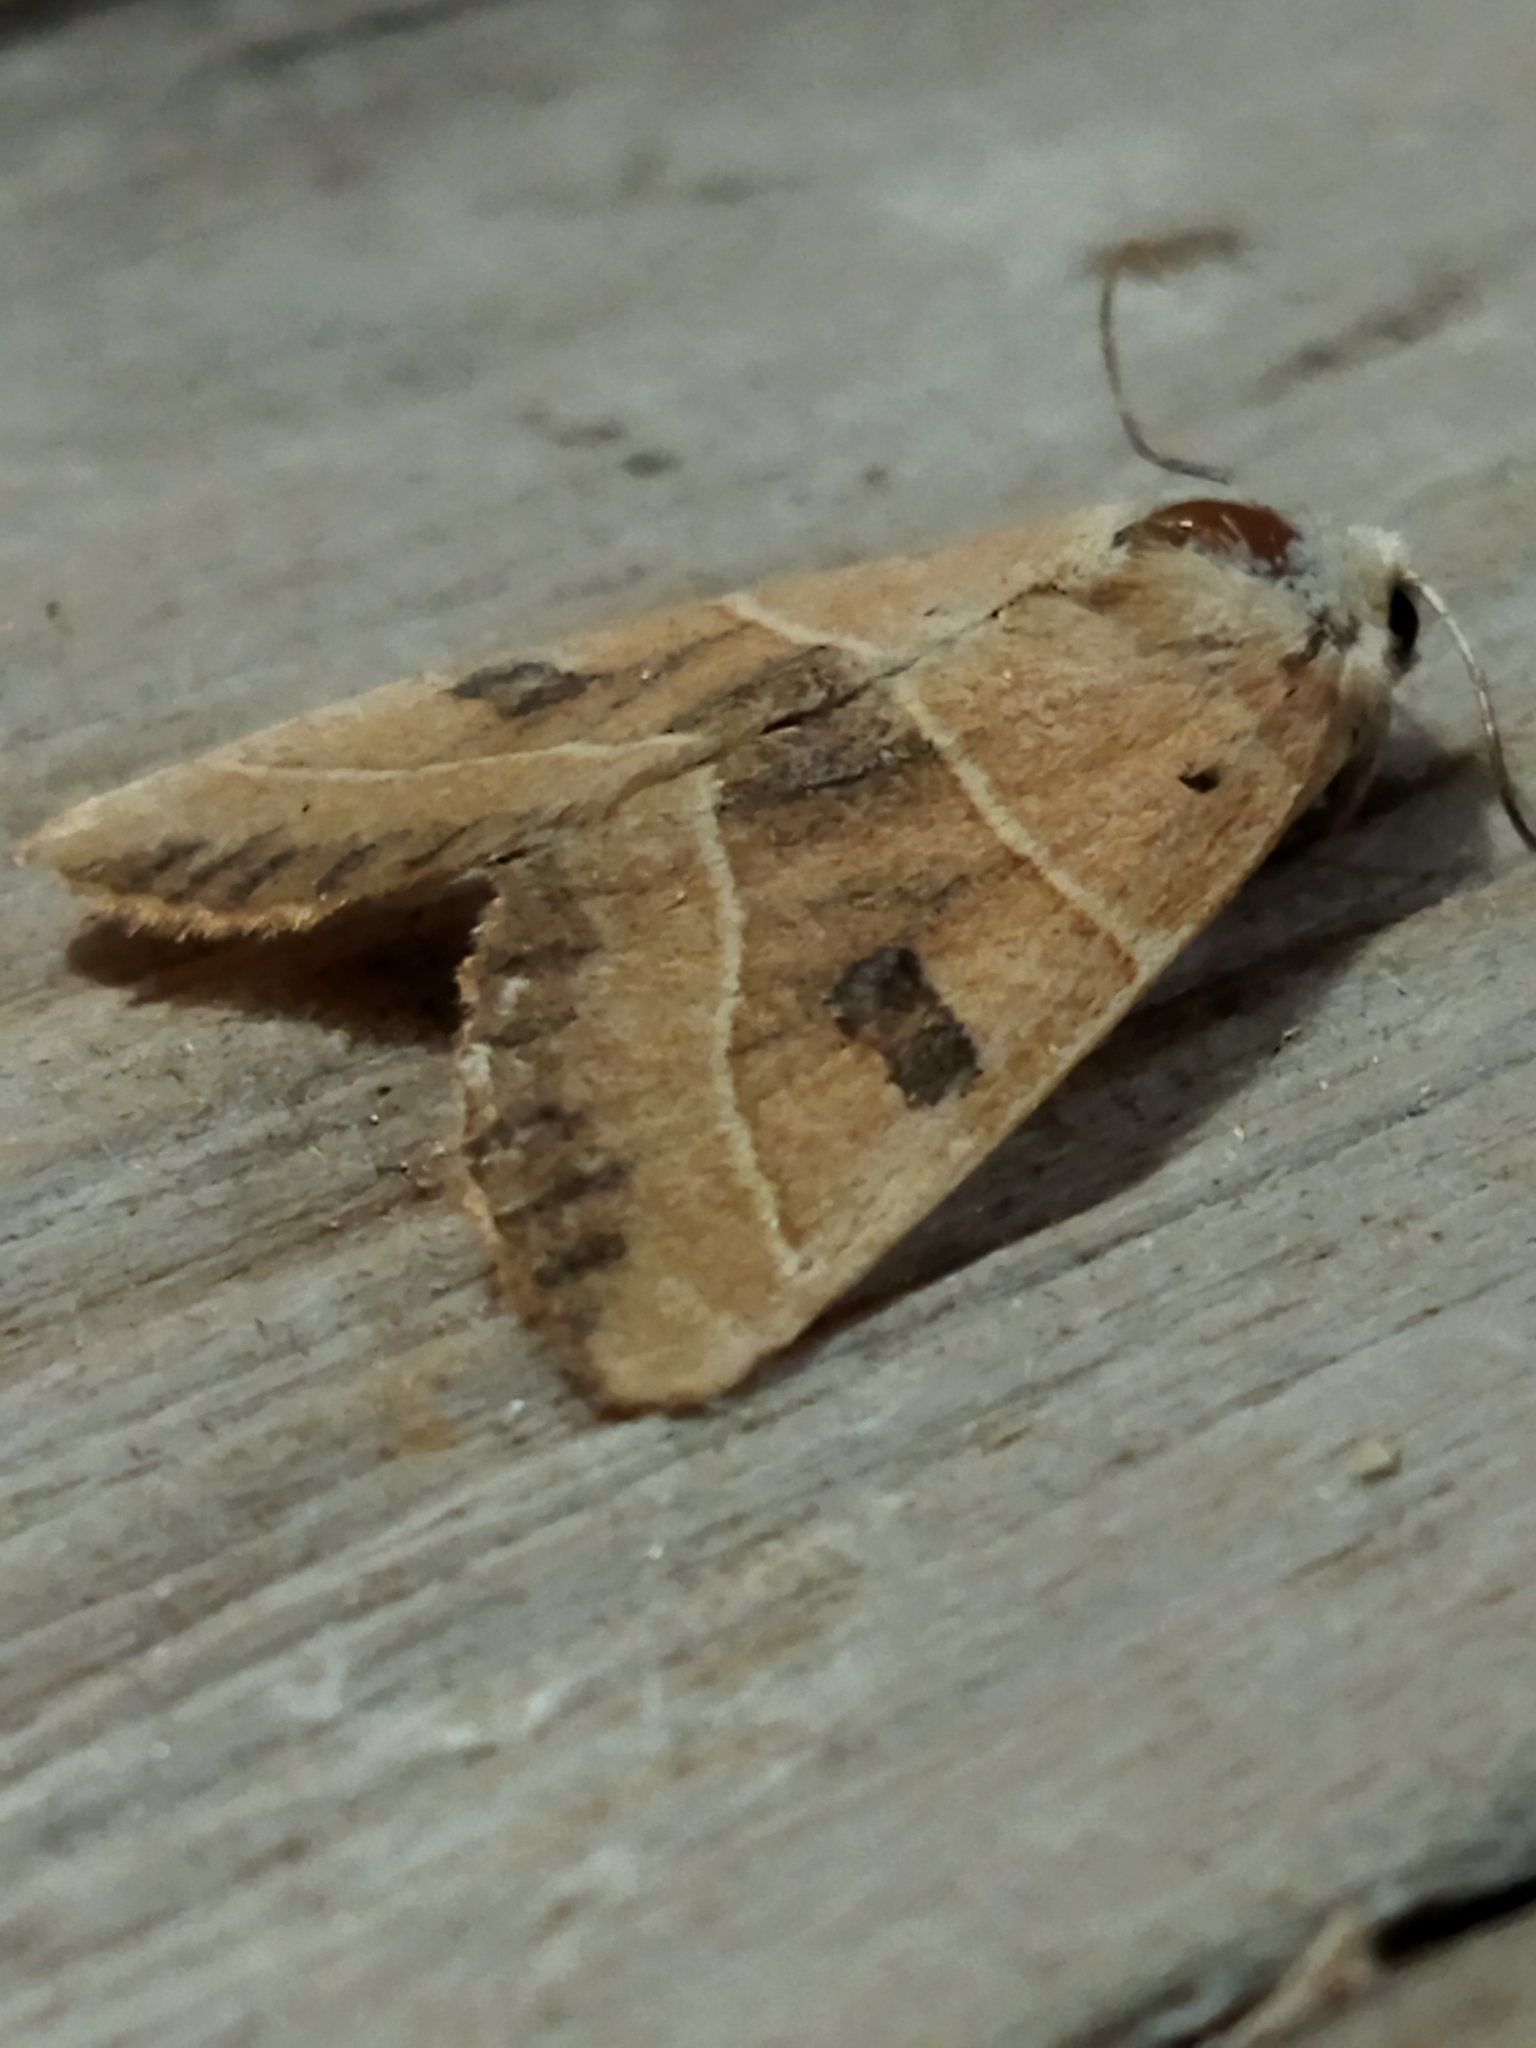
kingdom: Animalia
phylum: Arthropoda
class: Insecta
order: Lepidoptera
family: Noctuidae
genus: Atethmia
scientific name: Atethmia centrago
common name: Centre-barred sallow
